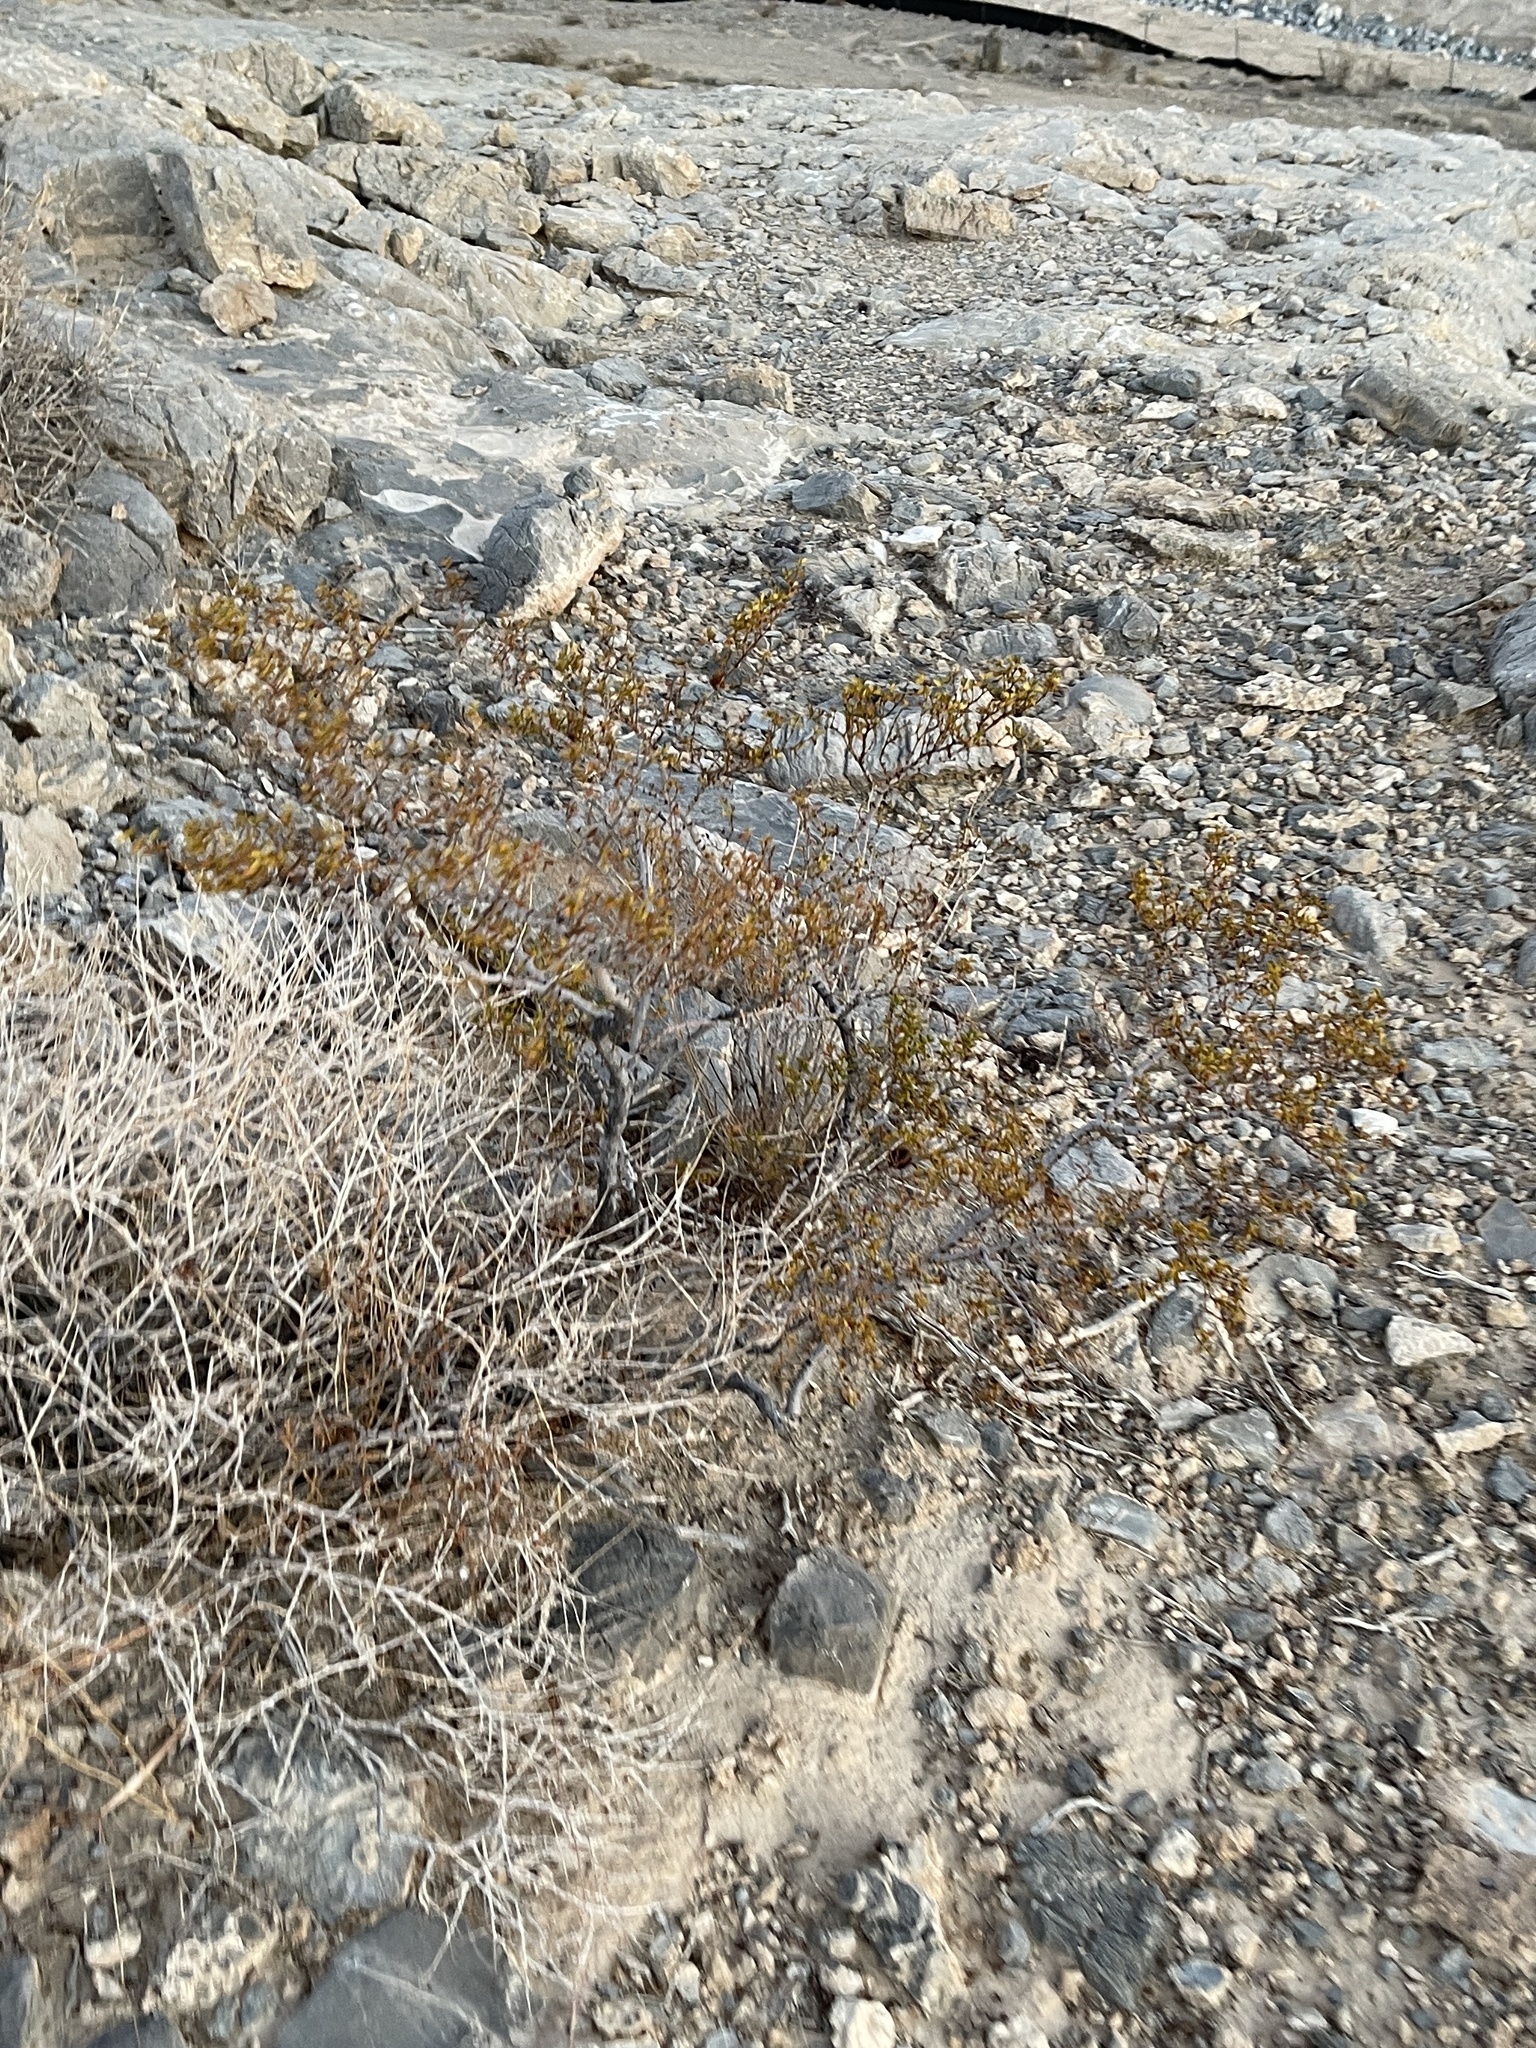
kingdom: Plantae
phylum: Tracheophyta
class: Magnoliopsida
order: Zygophyllales
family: Zygophyllaceae
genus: Larrea
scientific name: Larrea tridentata
